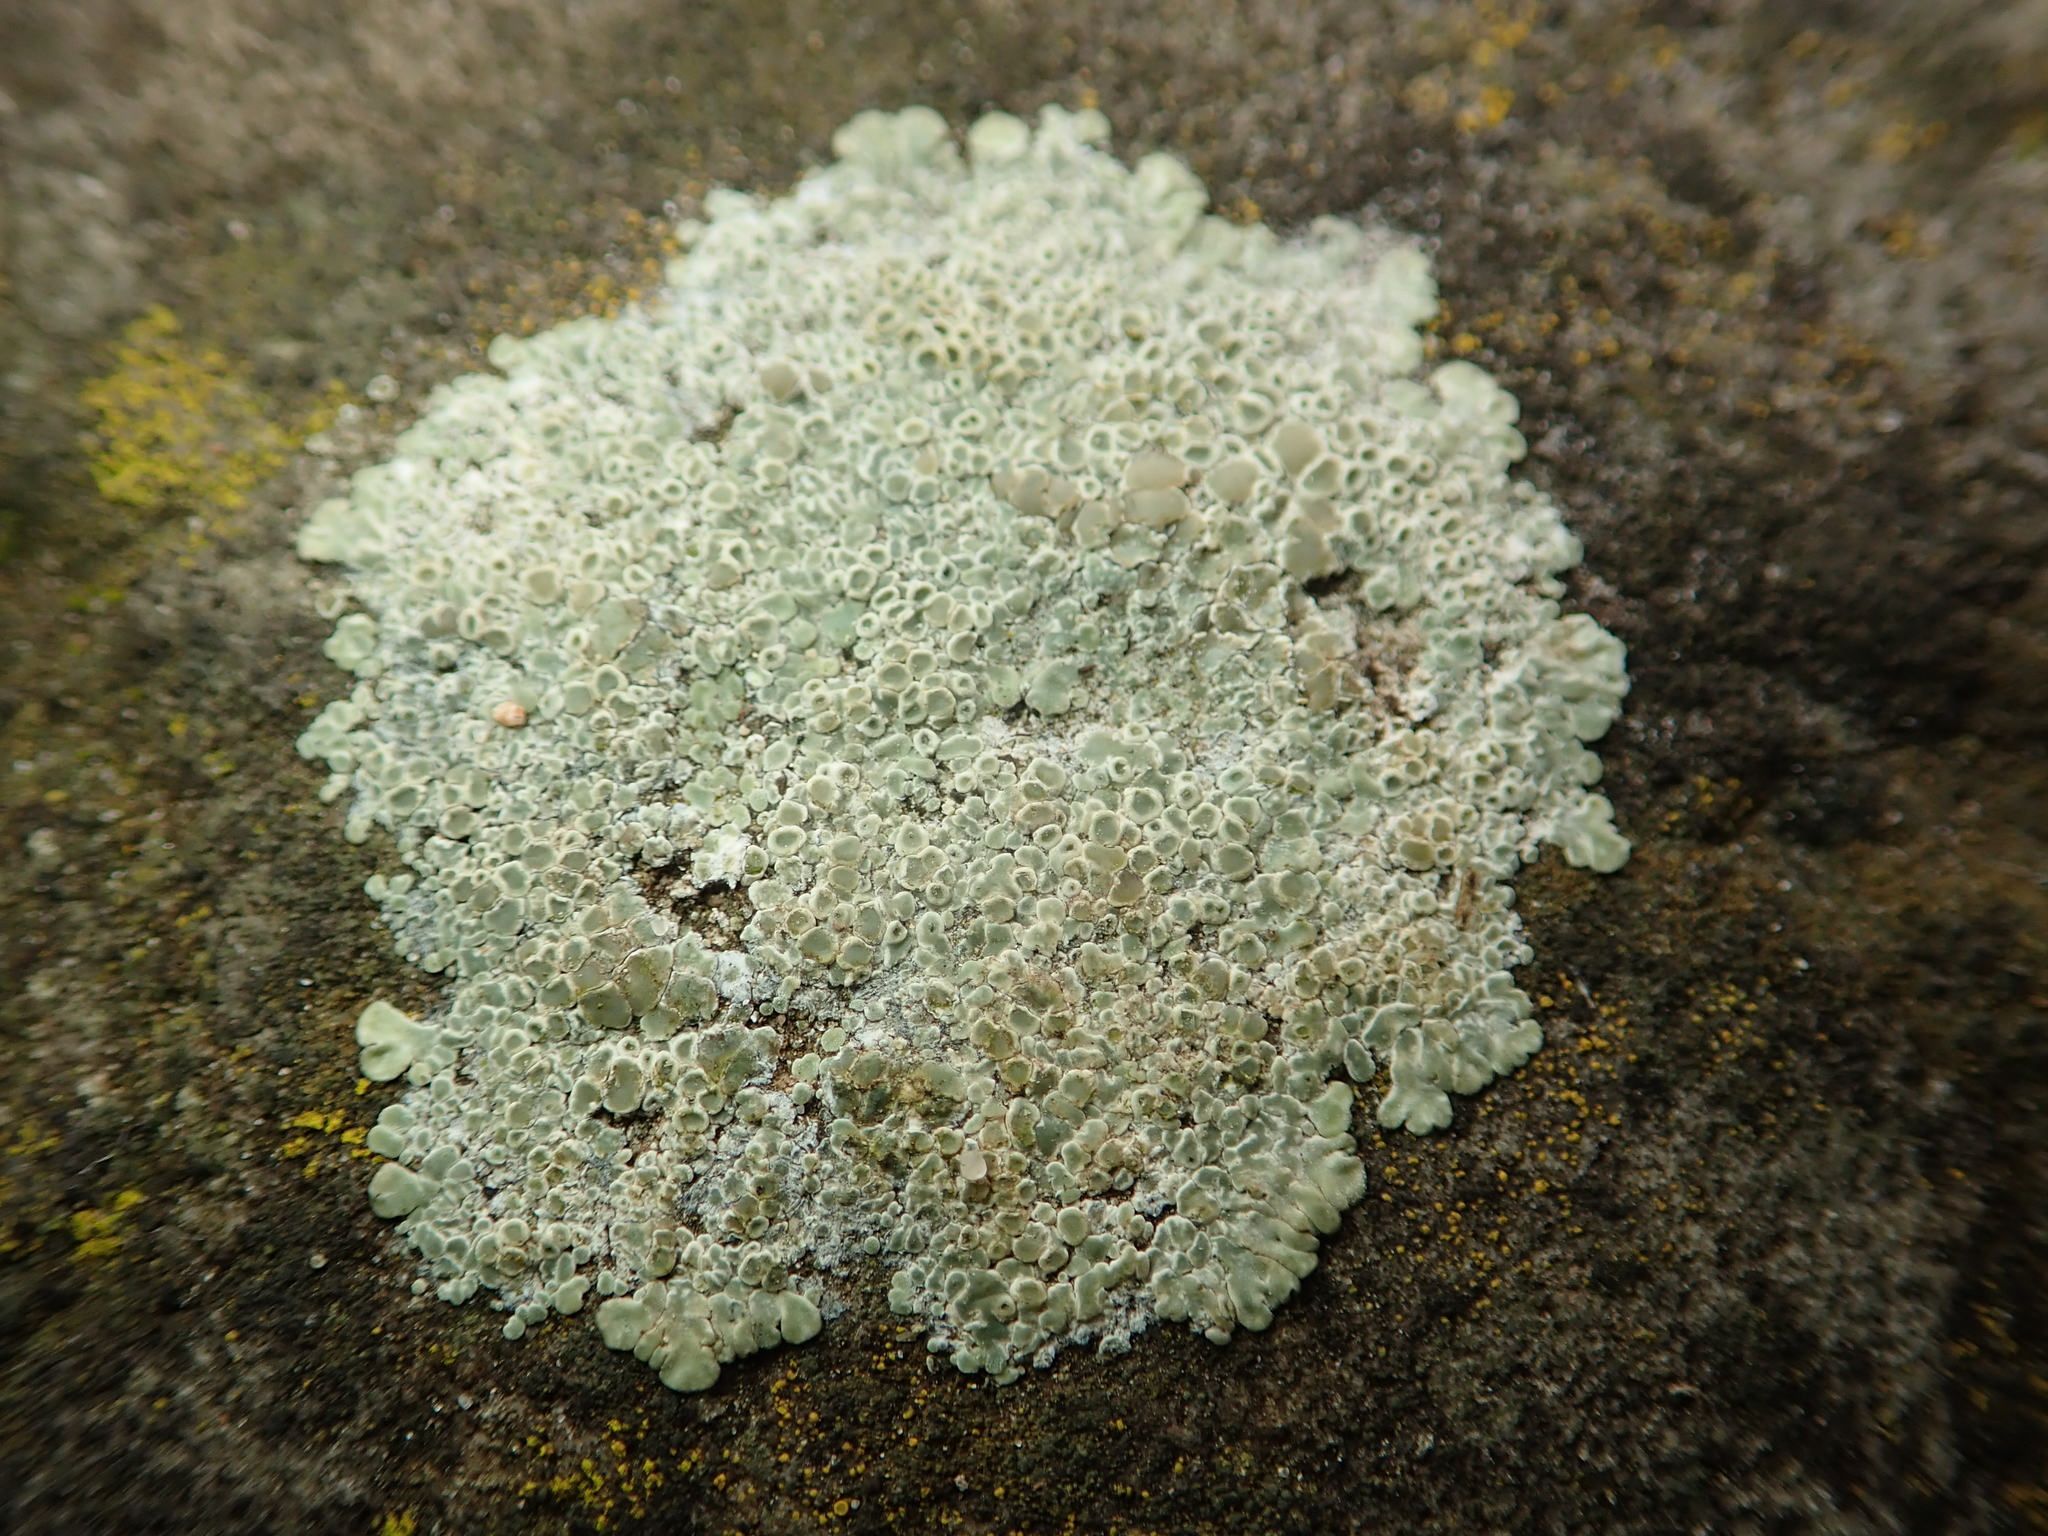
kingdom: Fungi
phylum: Ascomycota
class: Lecanoromycetes
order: Lecanorales
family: Lecanoraceae
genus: Protoparmeliopsis
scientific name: Protoparmeliopsis muralis
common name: Stonewall rim lichen
